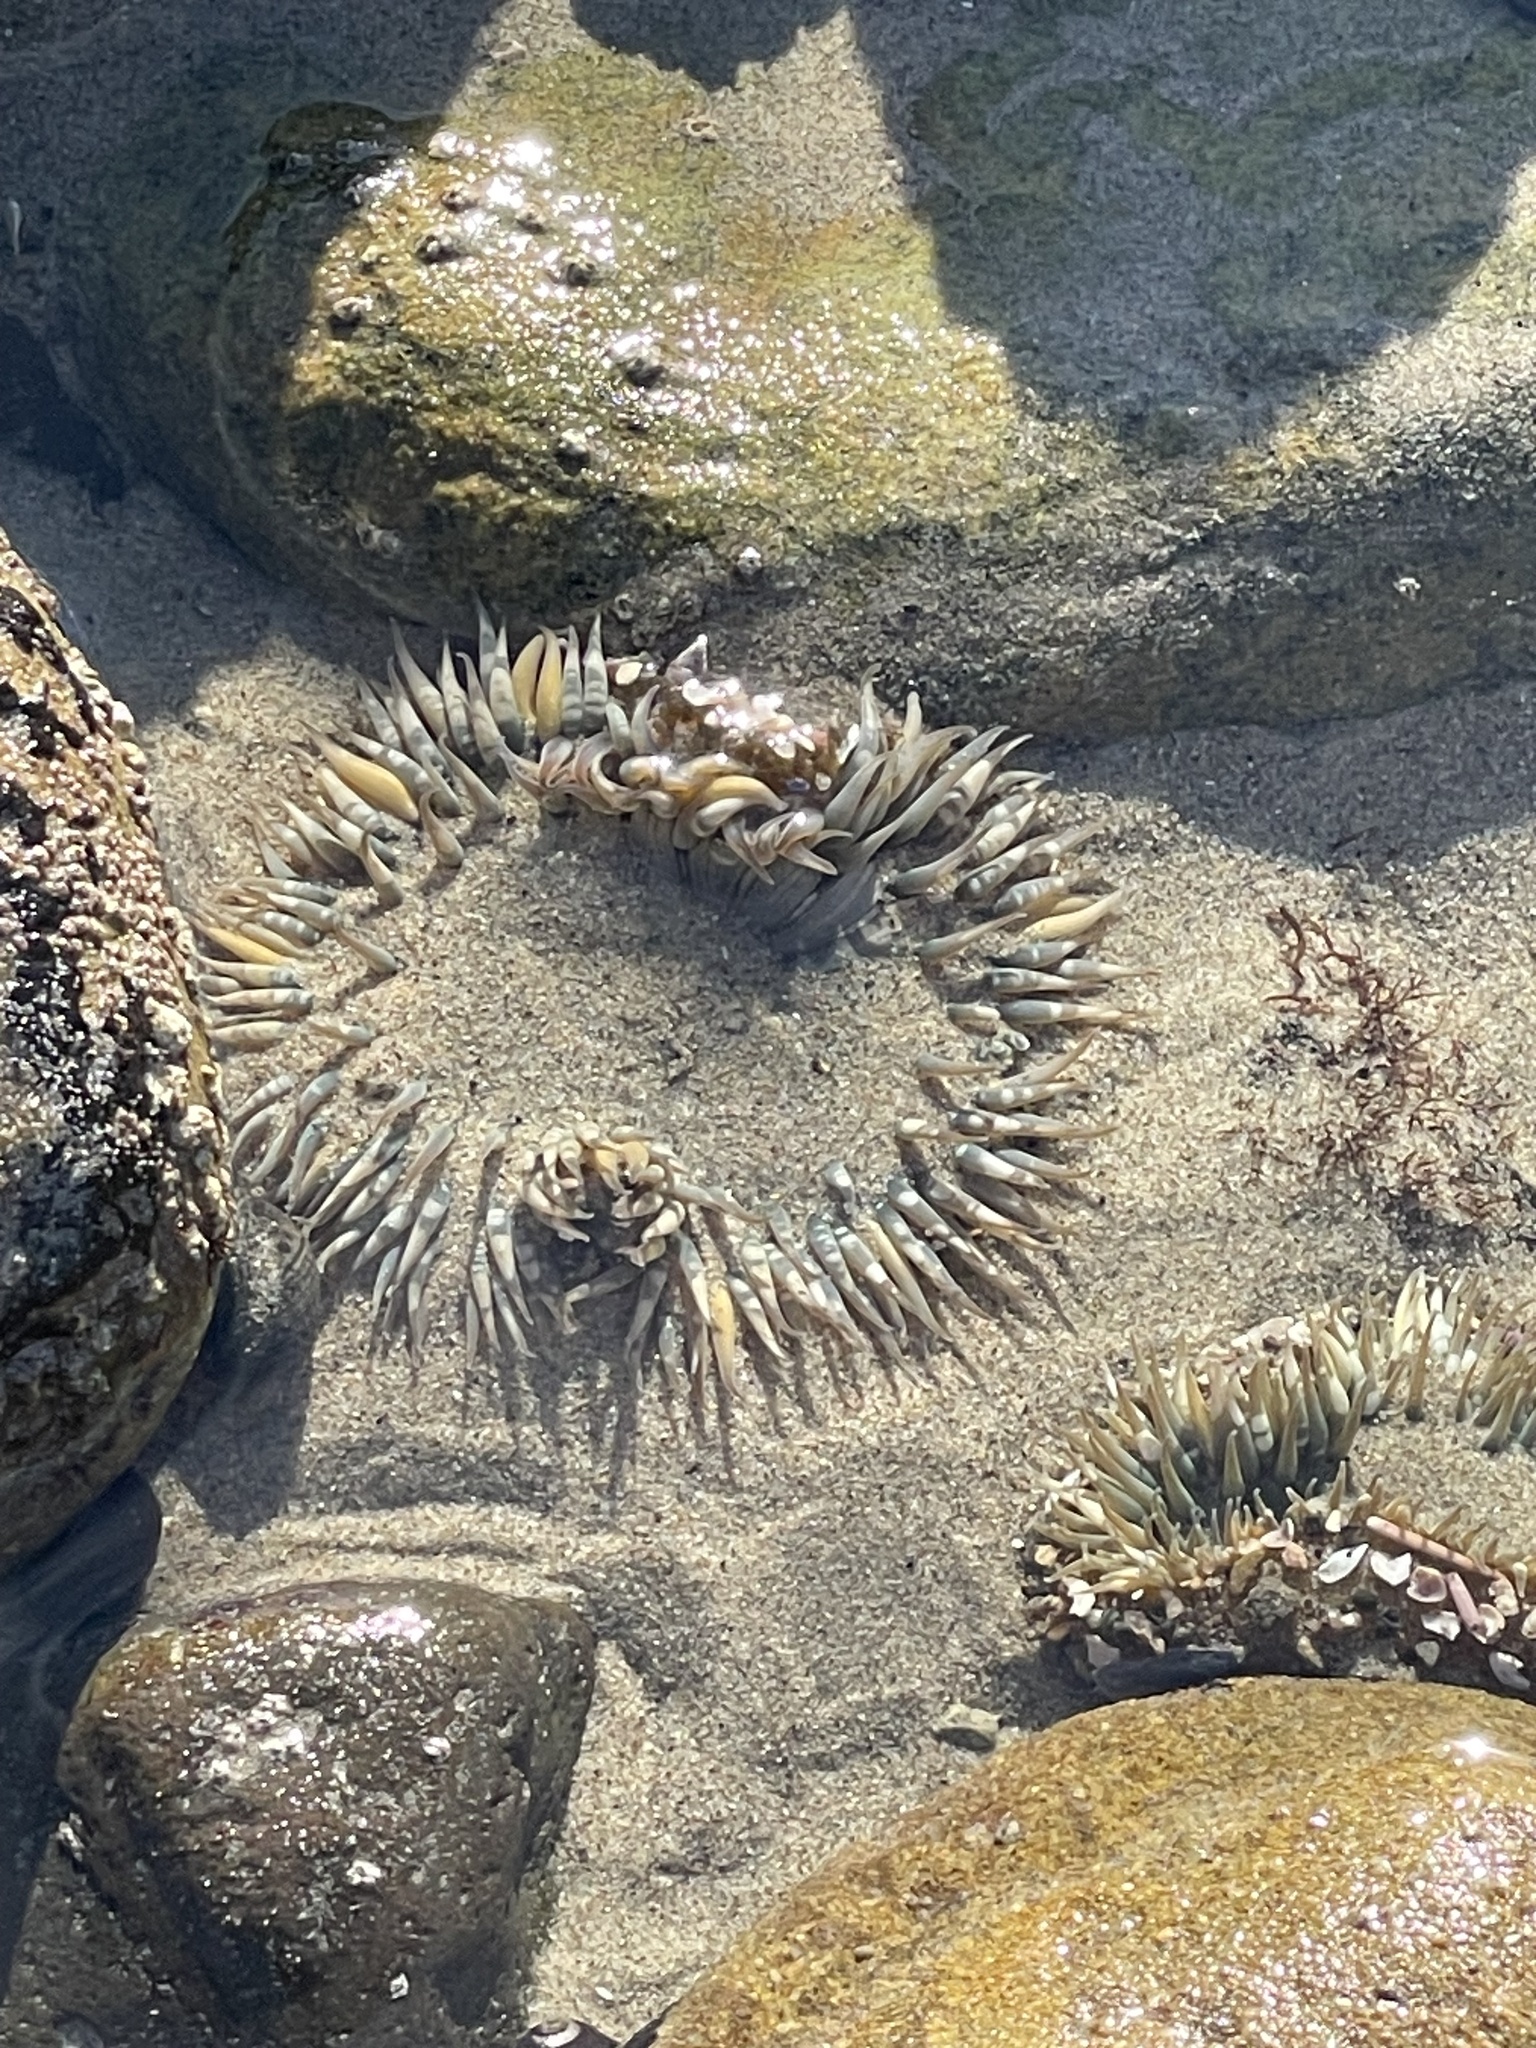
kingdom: Animalia
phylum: Cnidaria
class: Anthozoa
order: Actiniaria
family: Actiniidae
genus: Anthopleura
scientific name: Anthopleura sola
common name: Sun anemone
